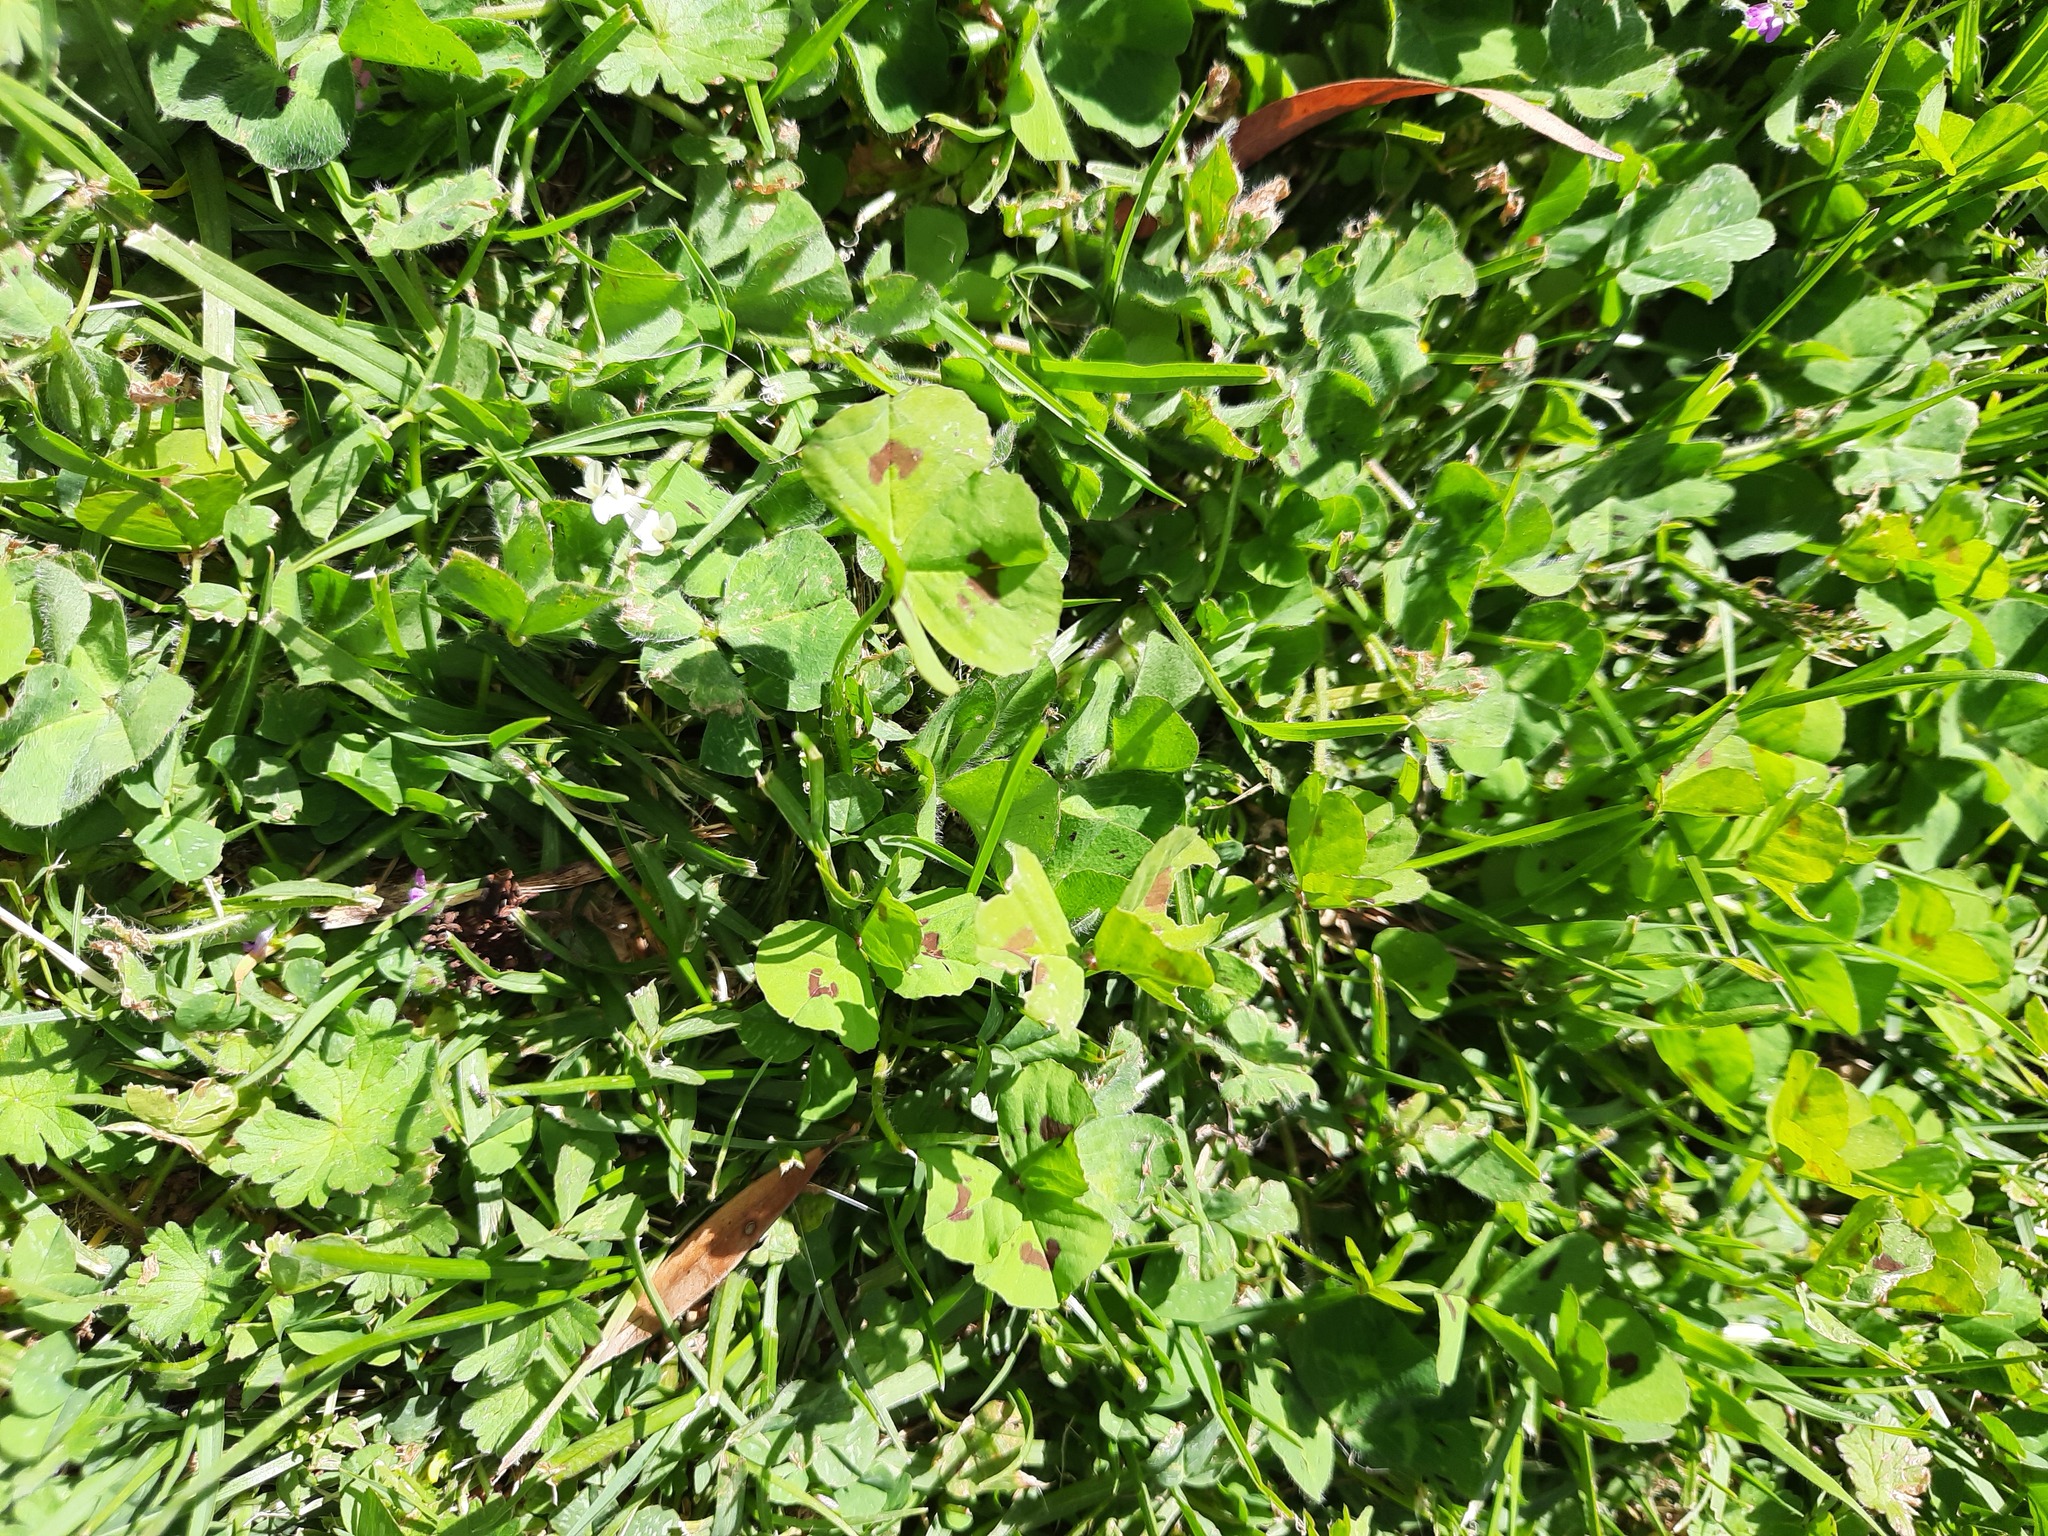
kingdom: Plantae
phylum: Tracheophyta
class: Magnoliopsida
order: Fabales
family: Fabaceae
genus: Medicago
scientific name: Medicago arabica
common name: Spotted medick
